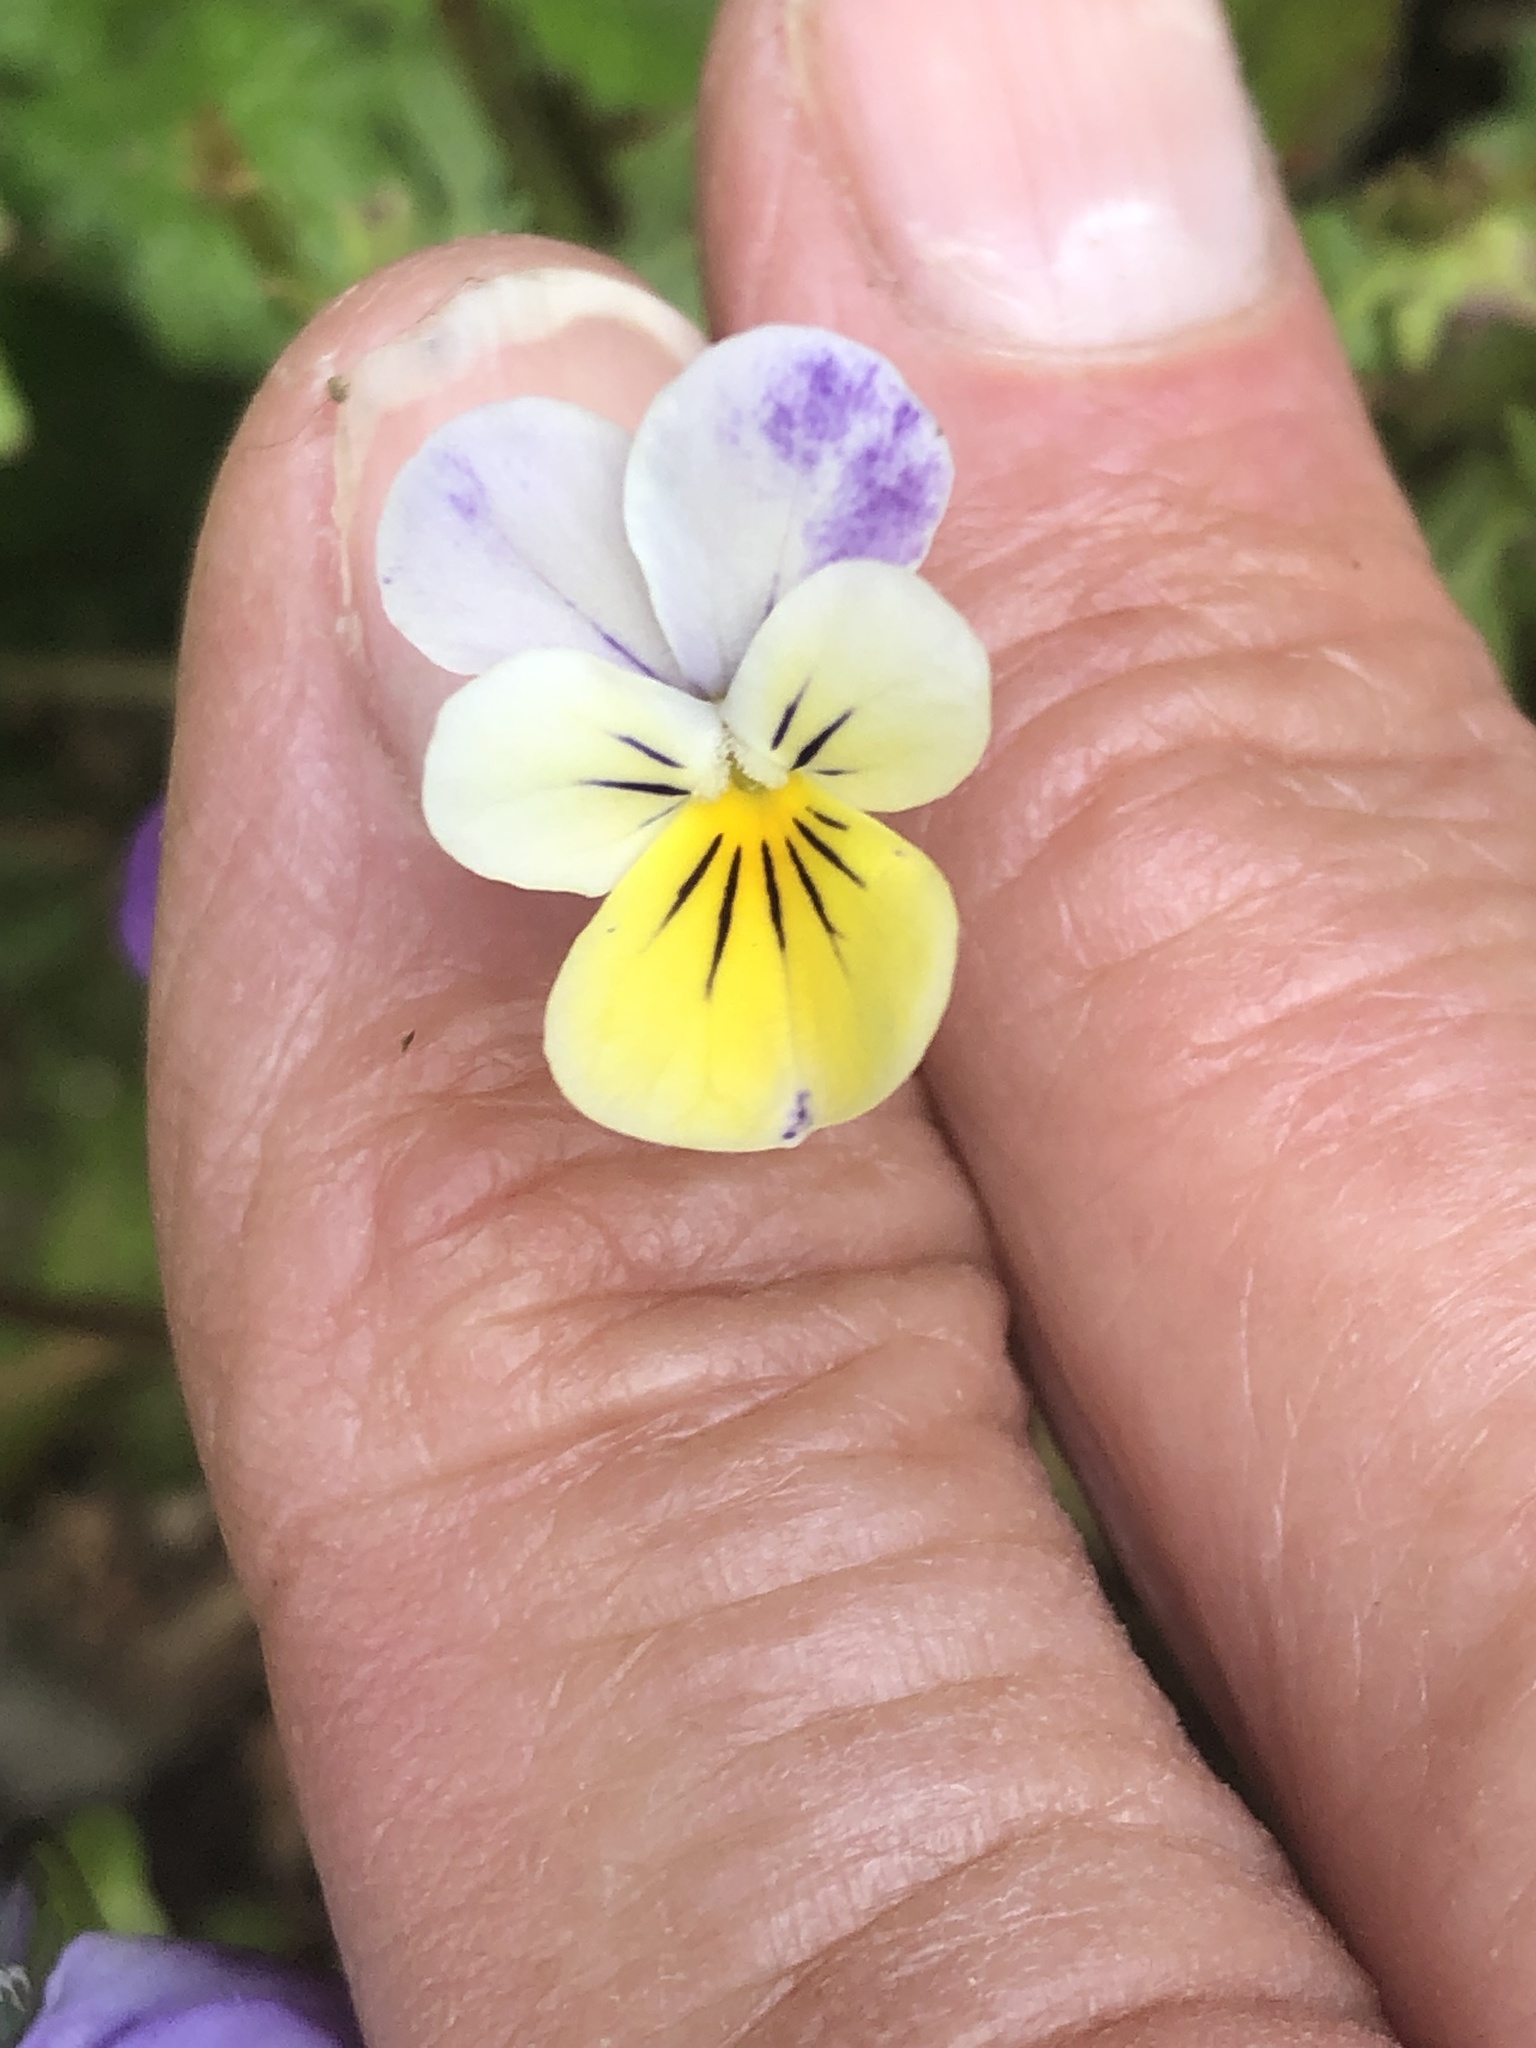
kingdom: Plantae
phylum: Tracheophyta
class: Magnoliopsida
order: Malpighiales
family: Violaceae
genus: Viola
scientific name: Viola williamsii
